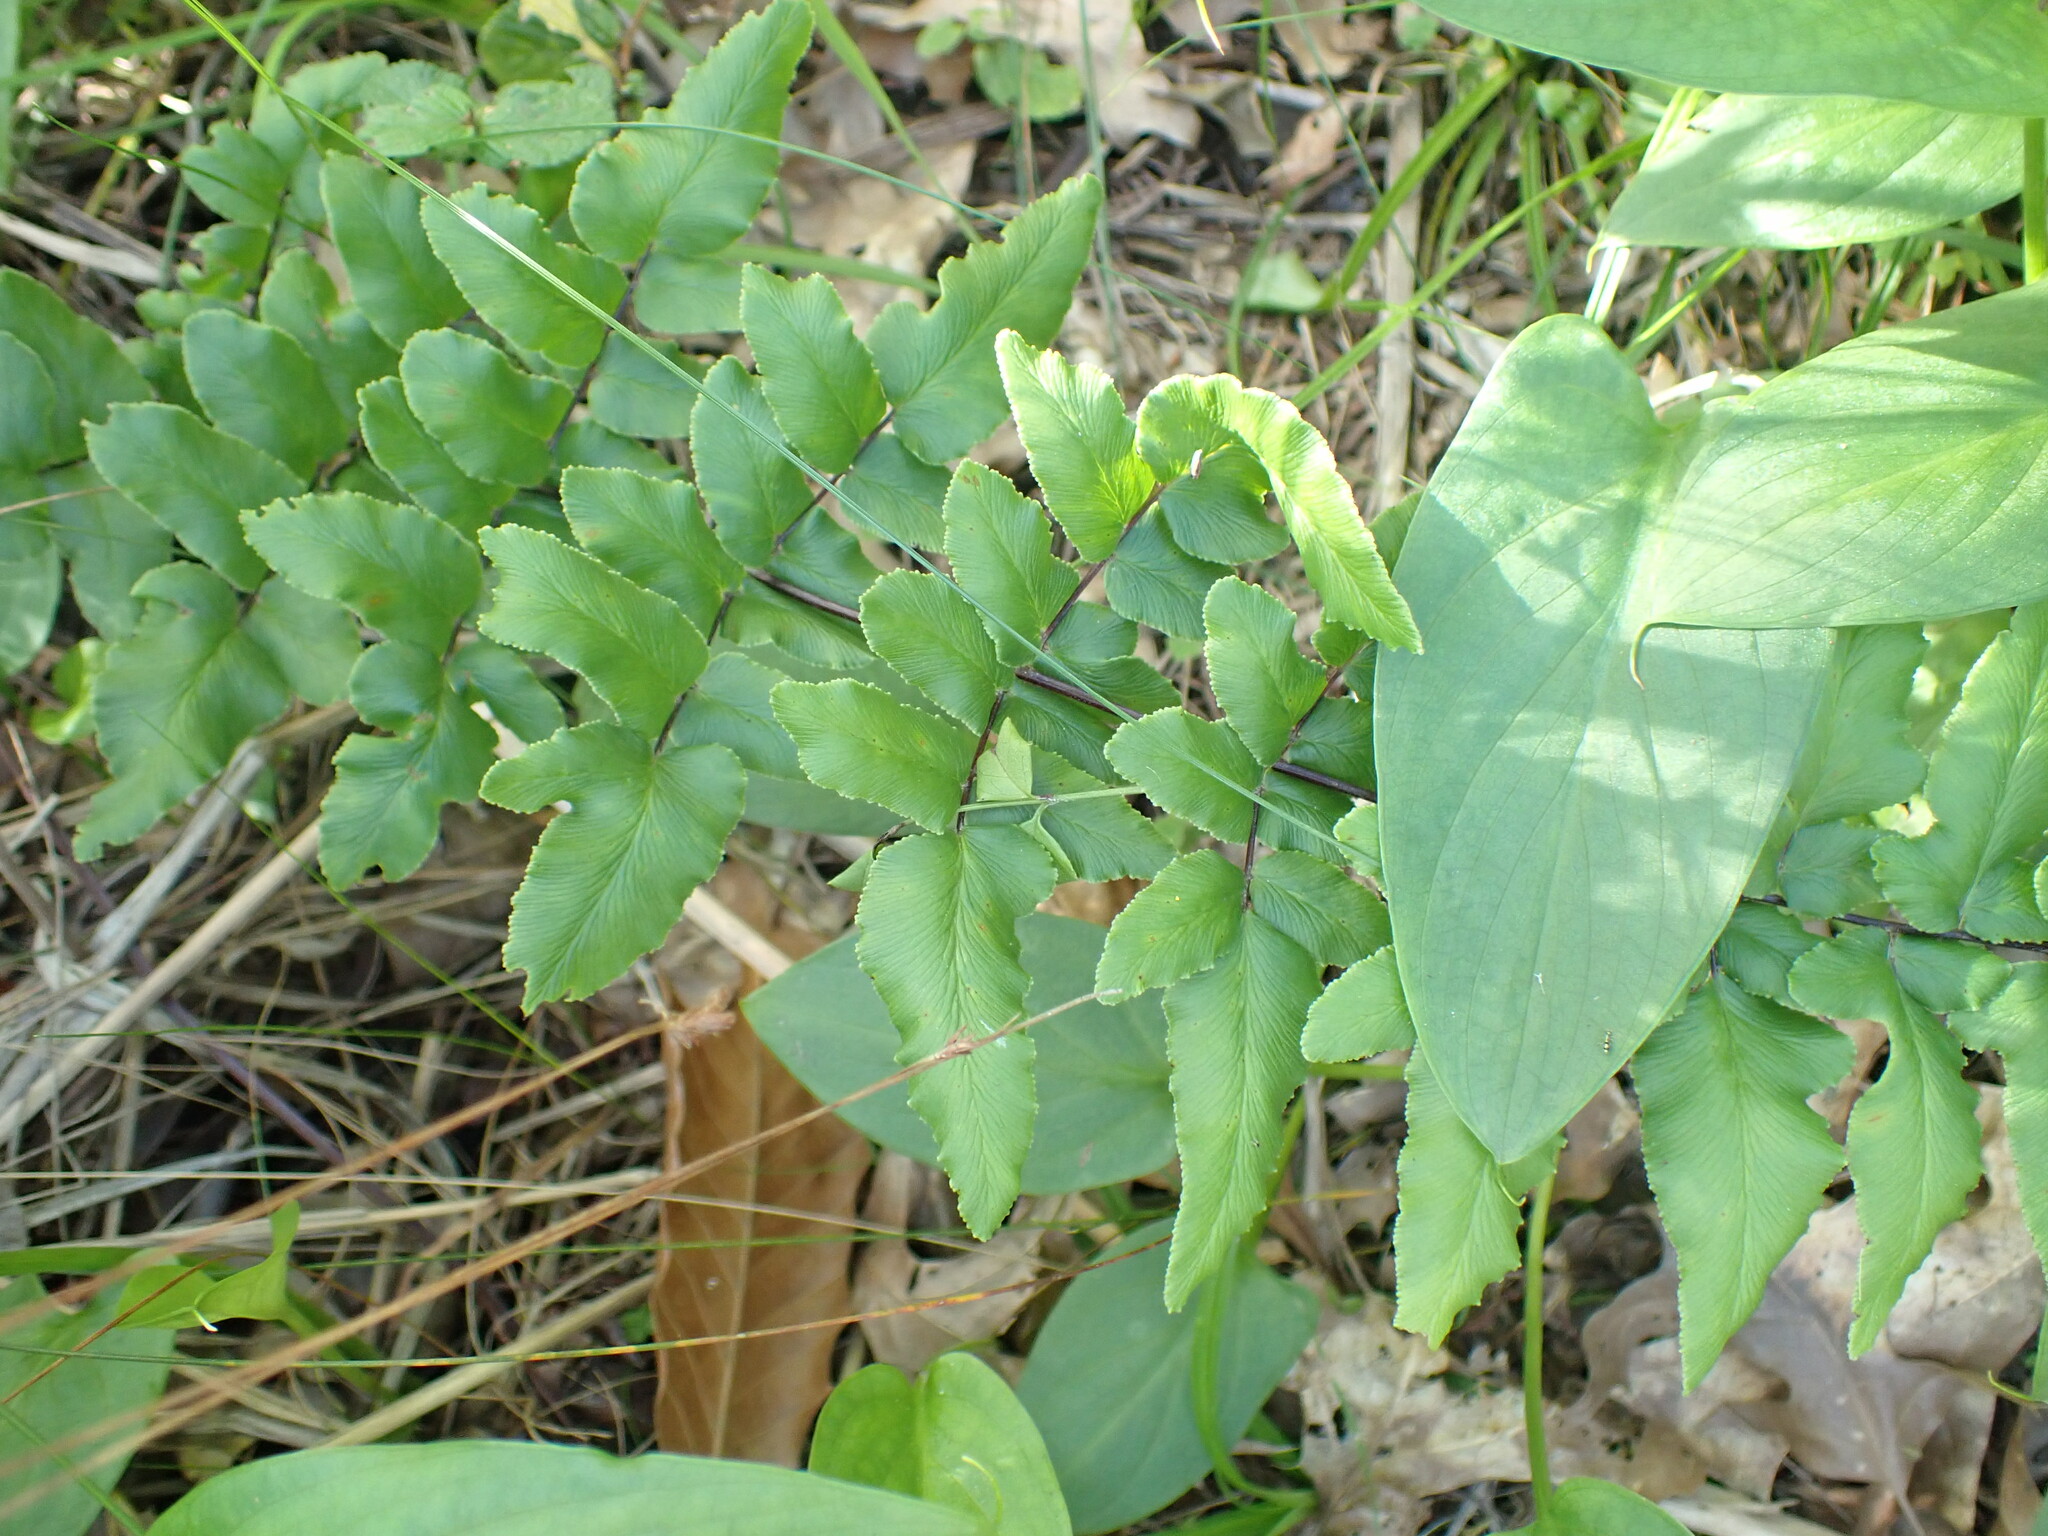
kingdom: Plantae
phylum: Tracheophyta
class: Polypodiopsida
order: Polypodiales
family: Pteridaceae
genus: Cheilanthes
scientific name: Cheilanthes viridis
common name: Green cliffbrake
